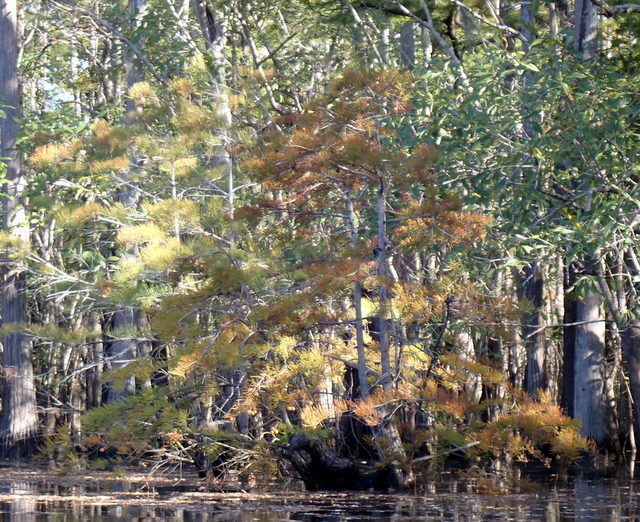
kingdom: Plantae
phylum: Tracheophyta
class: Pinopsida
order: Pinales
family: Cupressaceae
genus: Taxodium
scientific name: Taxodium distichum
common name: Bald cypress
